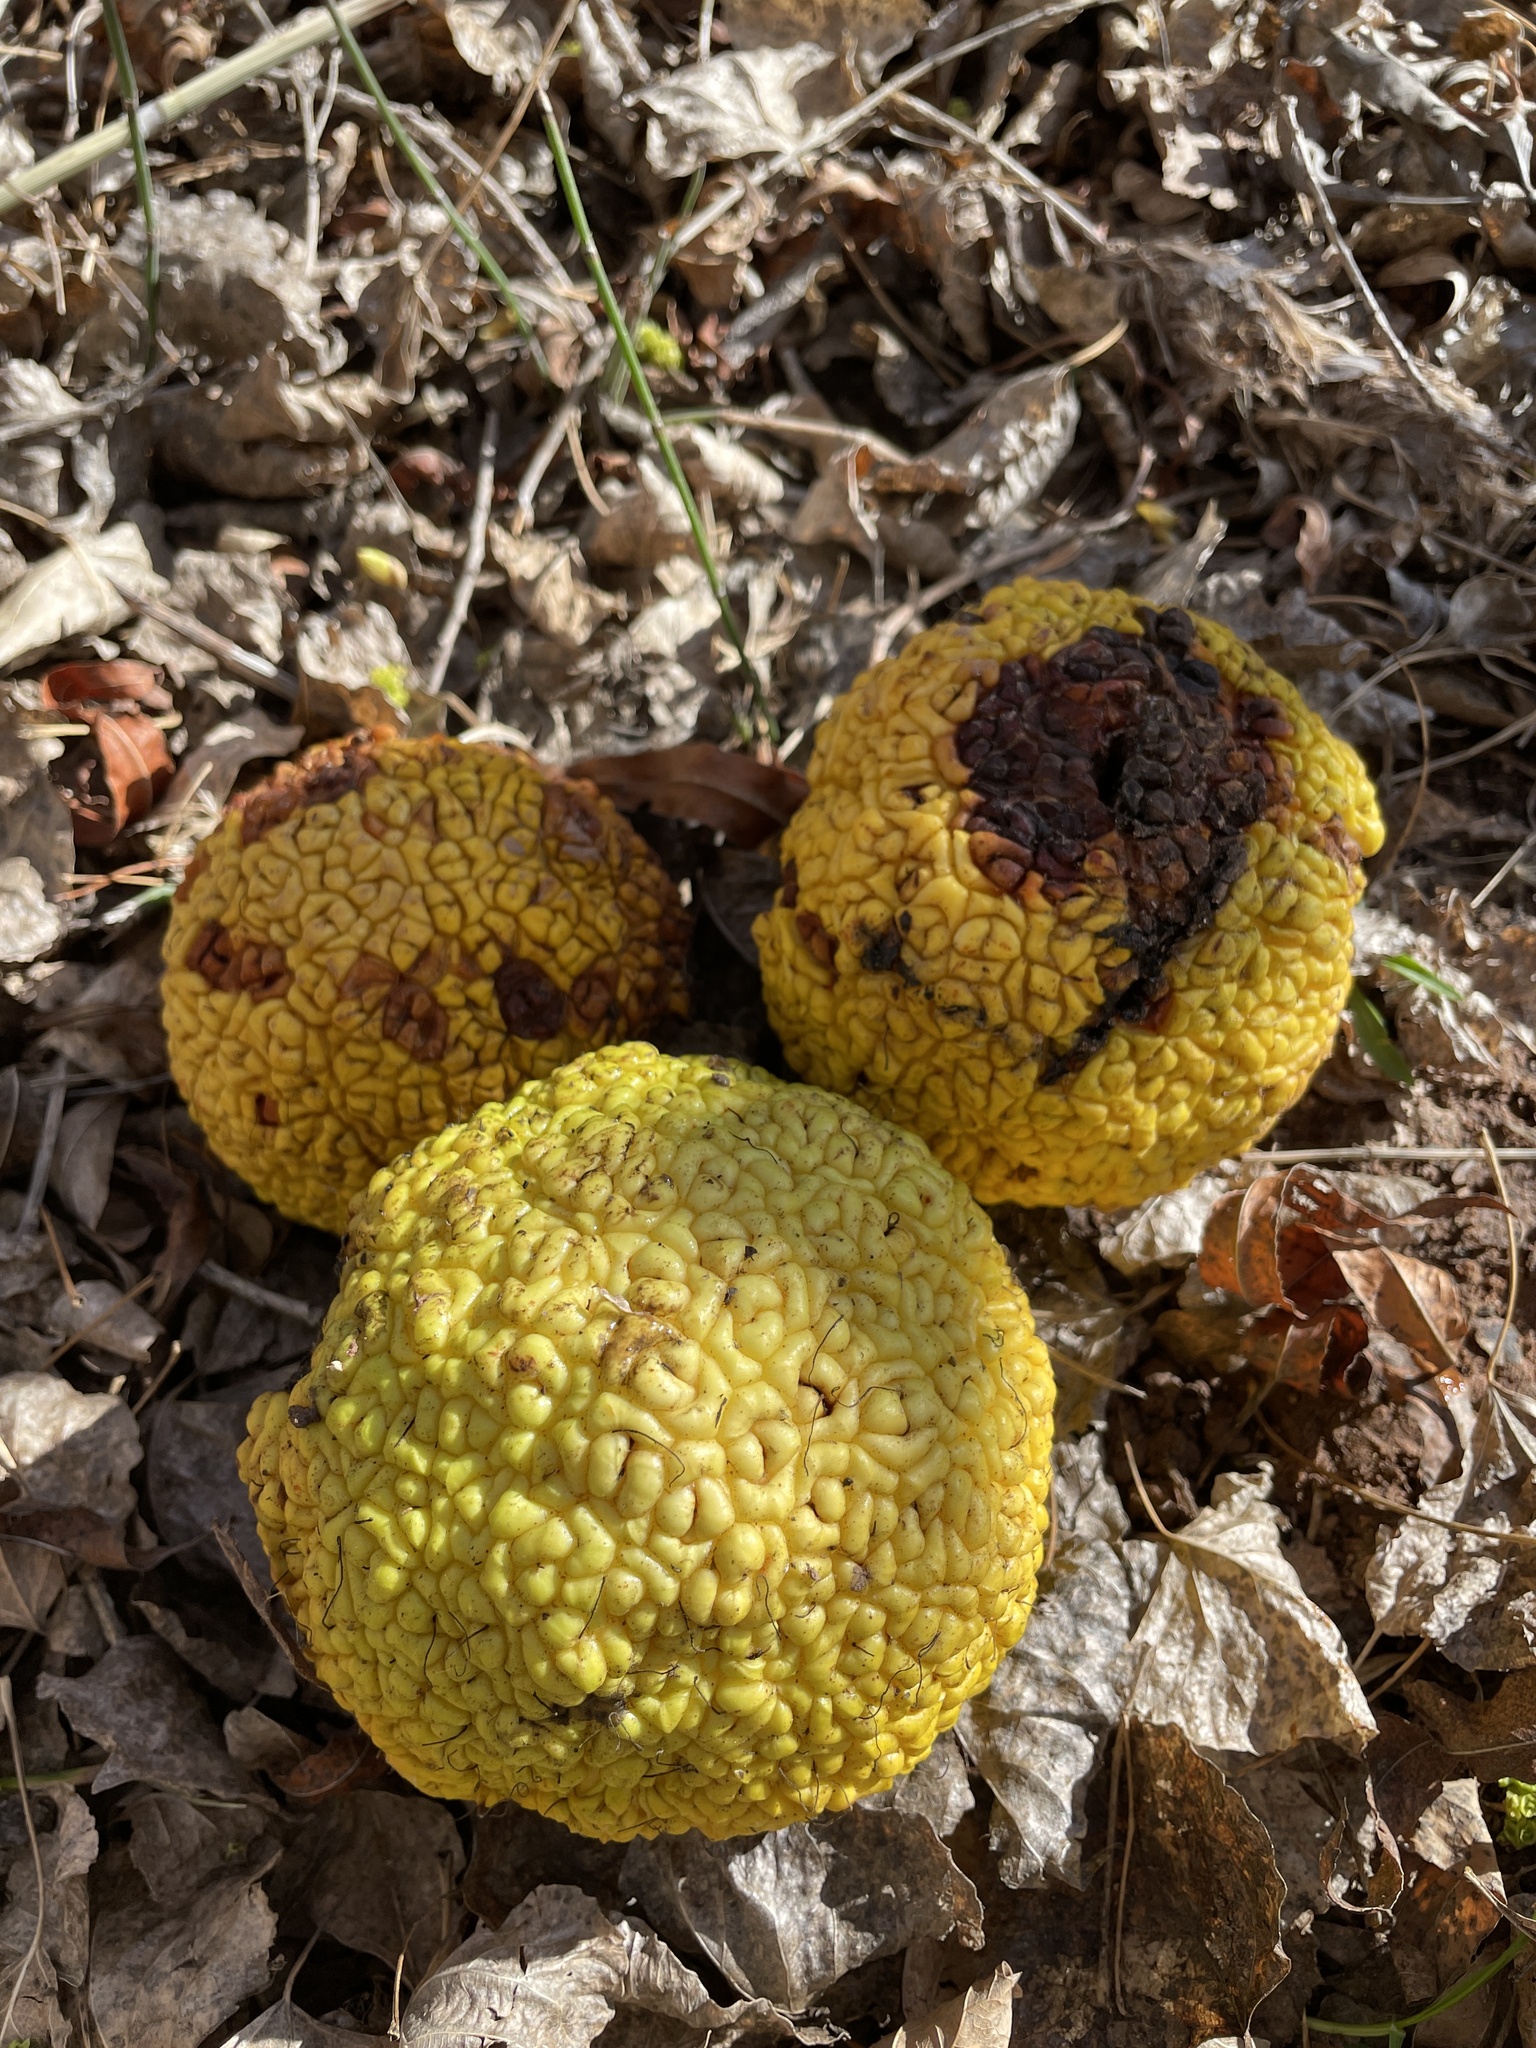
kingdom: Plantae
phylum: Tracheophyta
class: Magnoliopsida
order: Rosales
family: Moraceae
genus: Maclura
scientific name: Maclura pomifera
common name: Osage-orange
